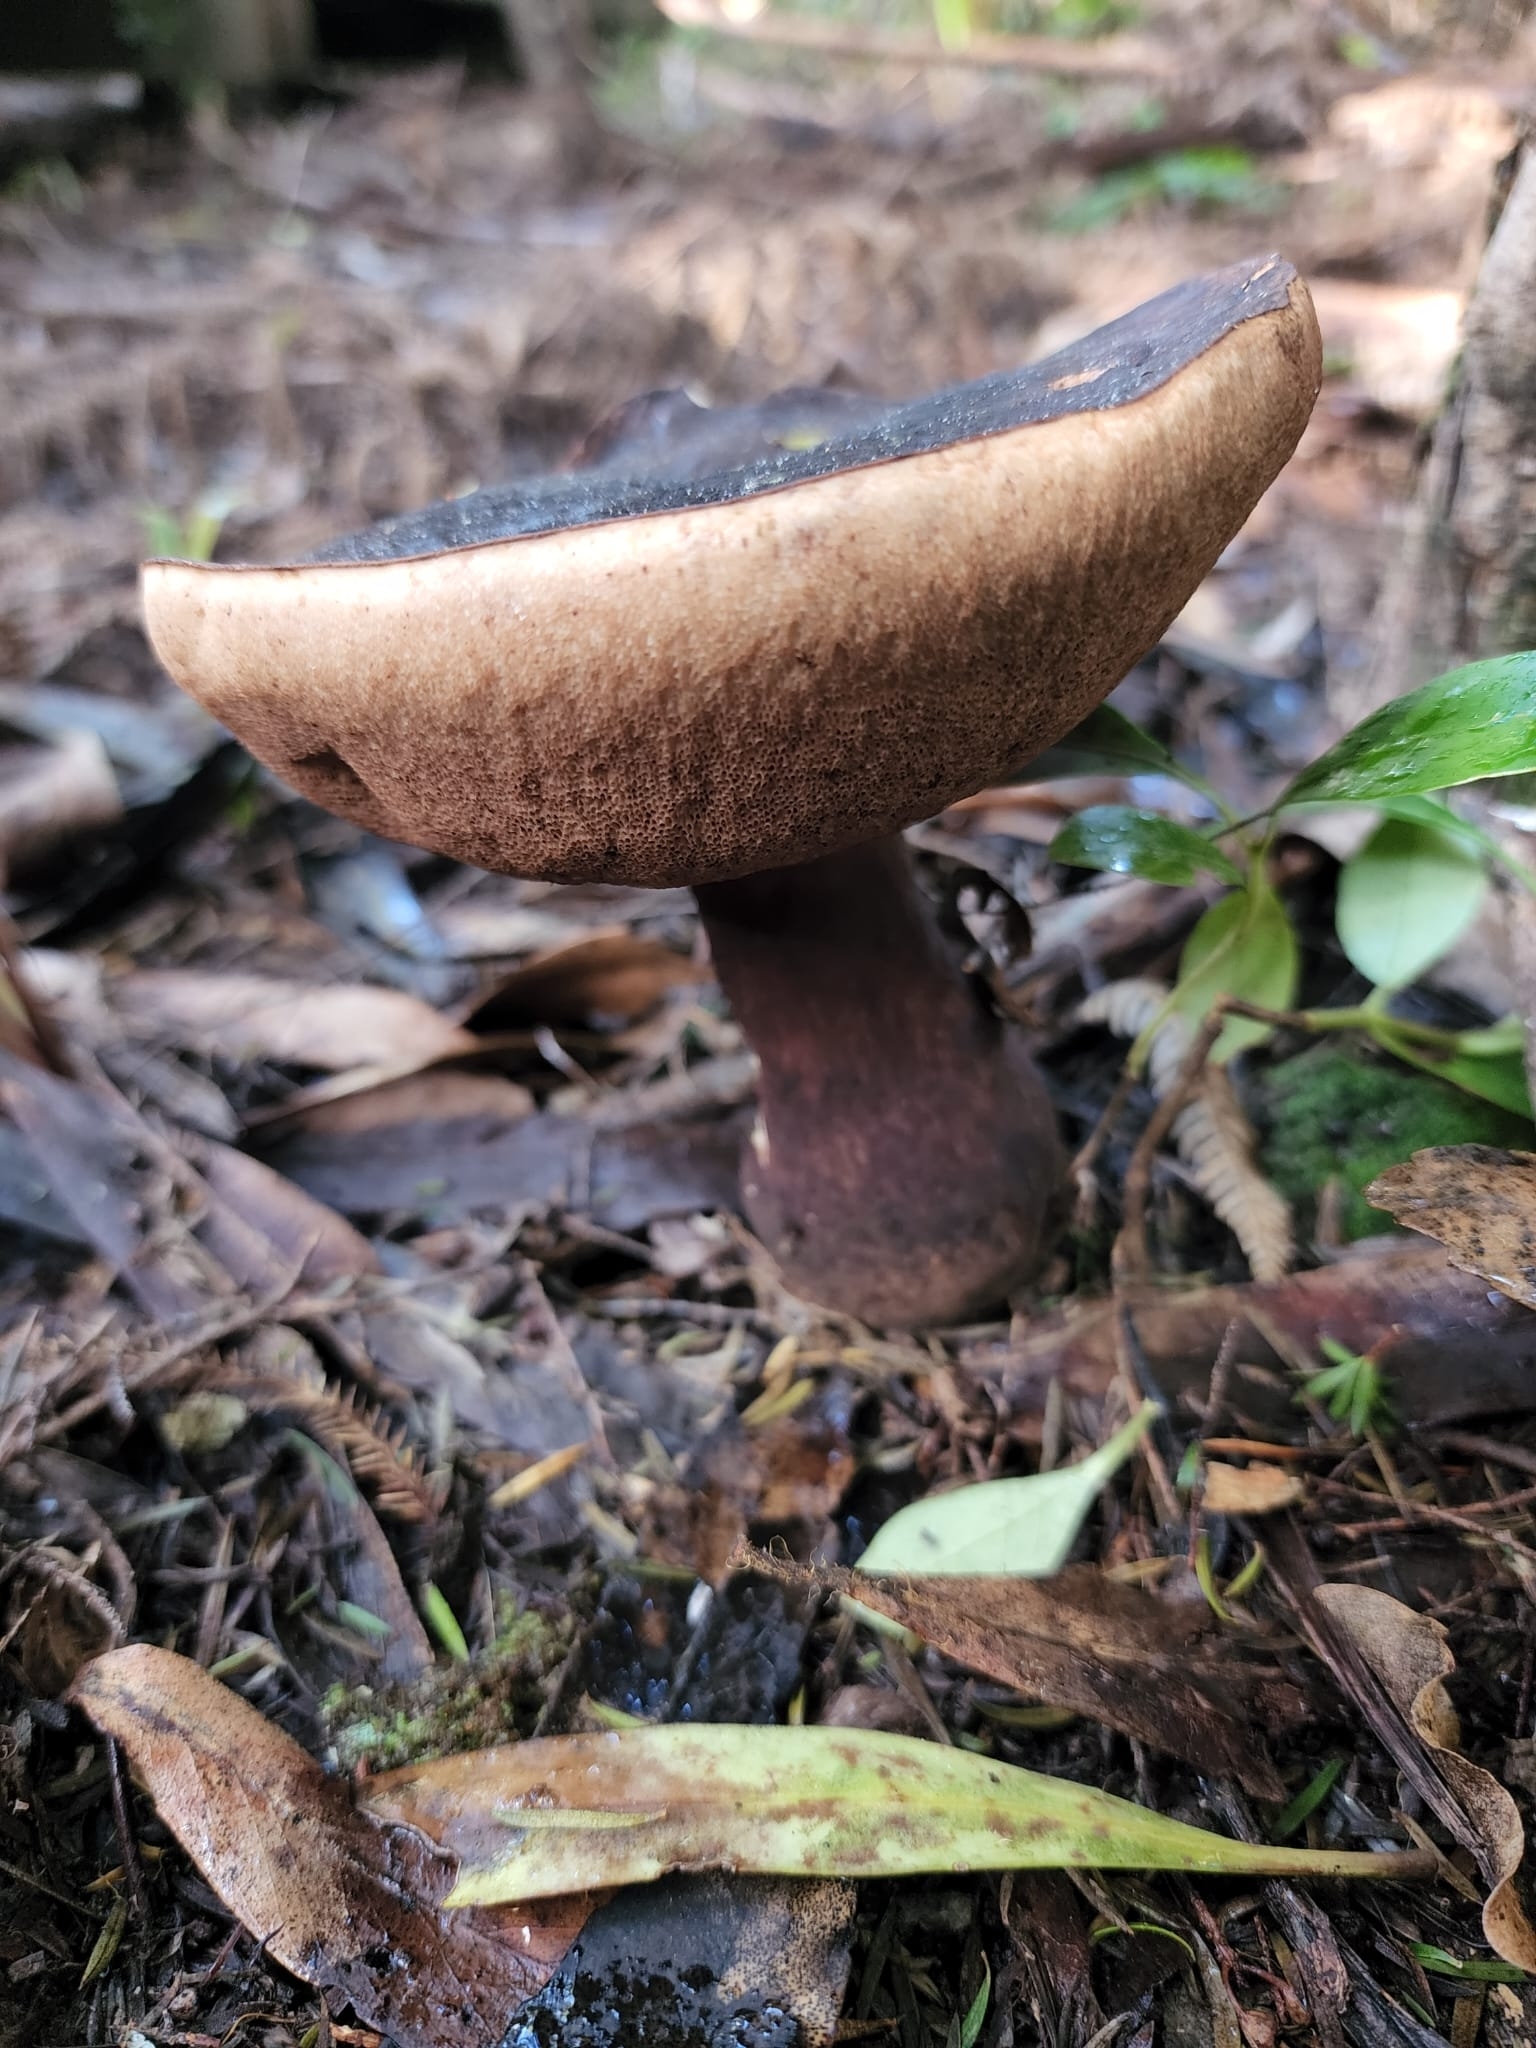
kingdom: Fungi
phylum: Basidiomycota
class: Agaricomycetes
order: Boletales
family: Boletaceae
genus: Porphyrellus
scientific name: Porphyrellus formosus
